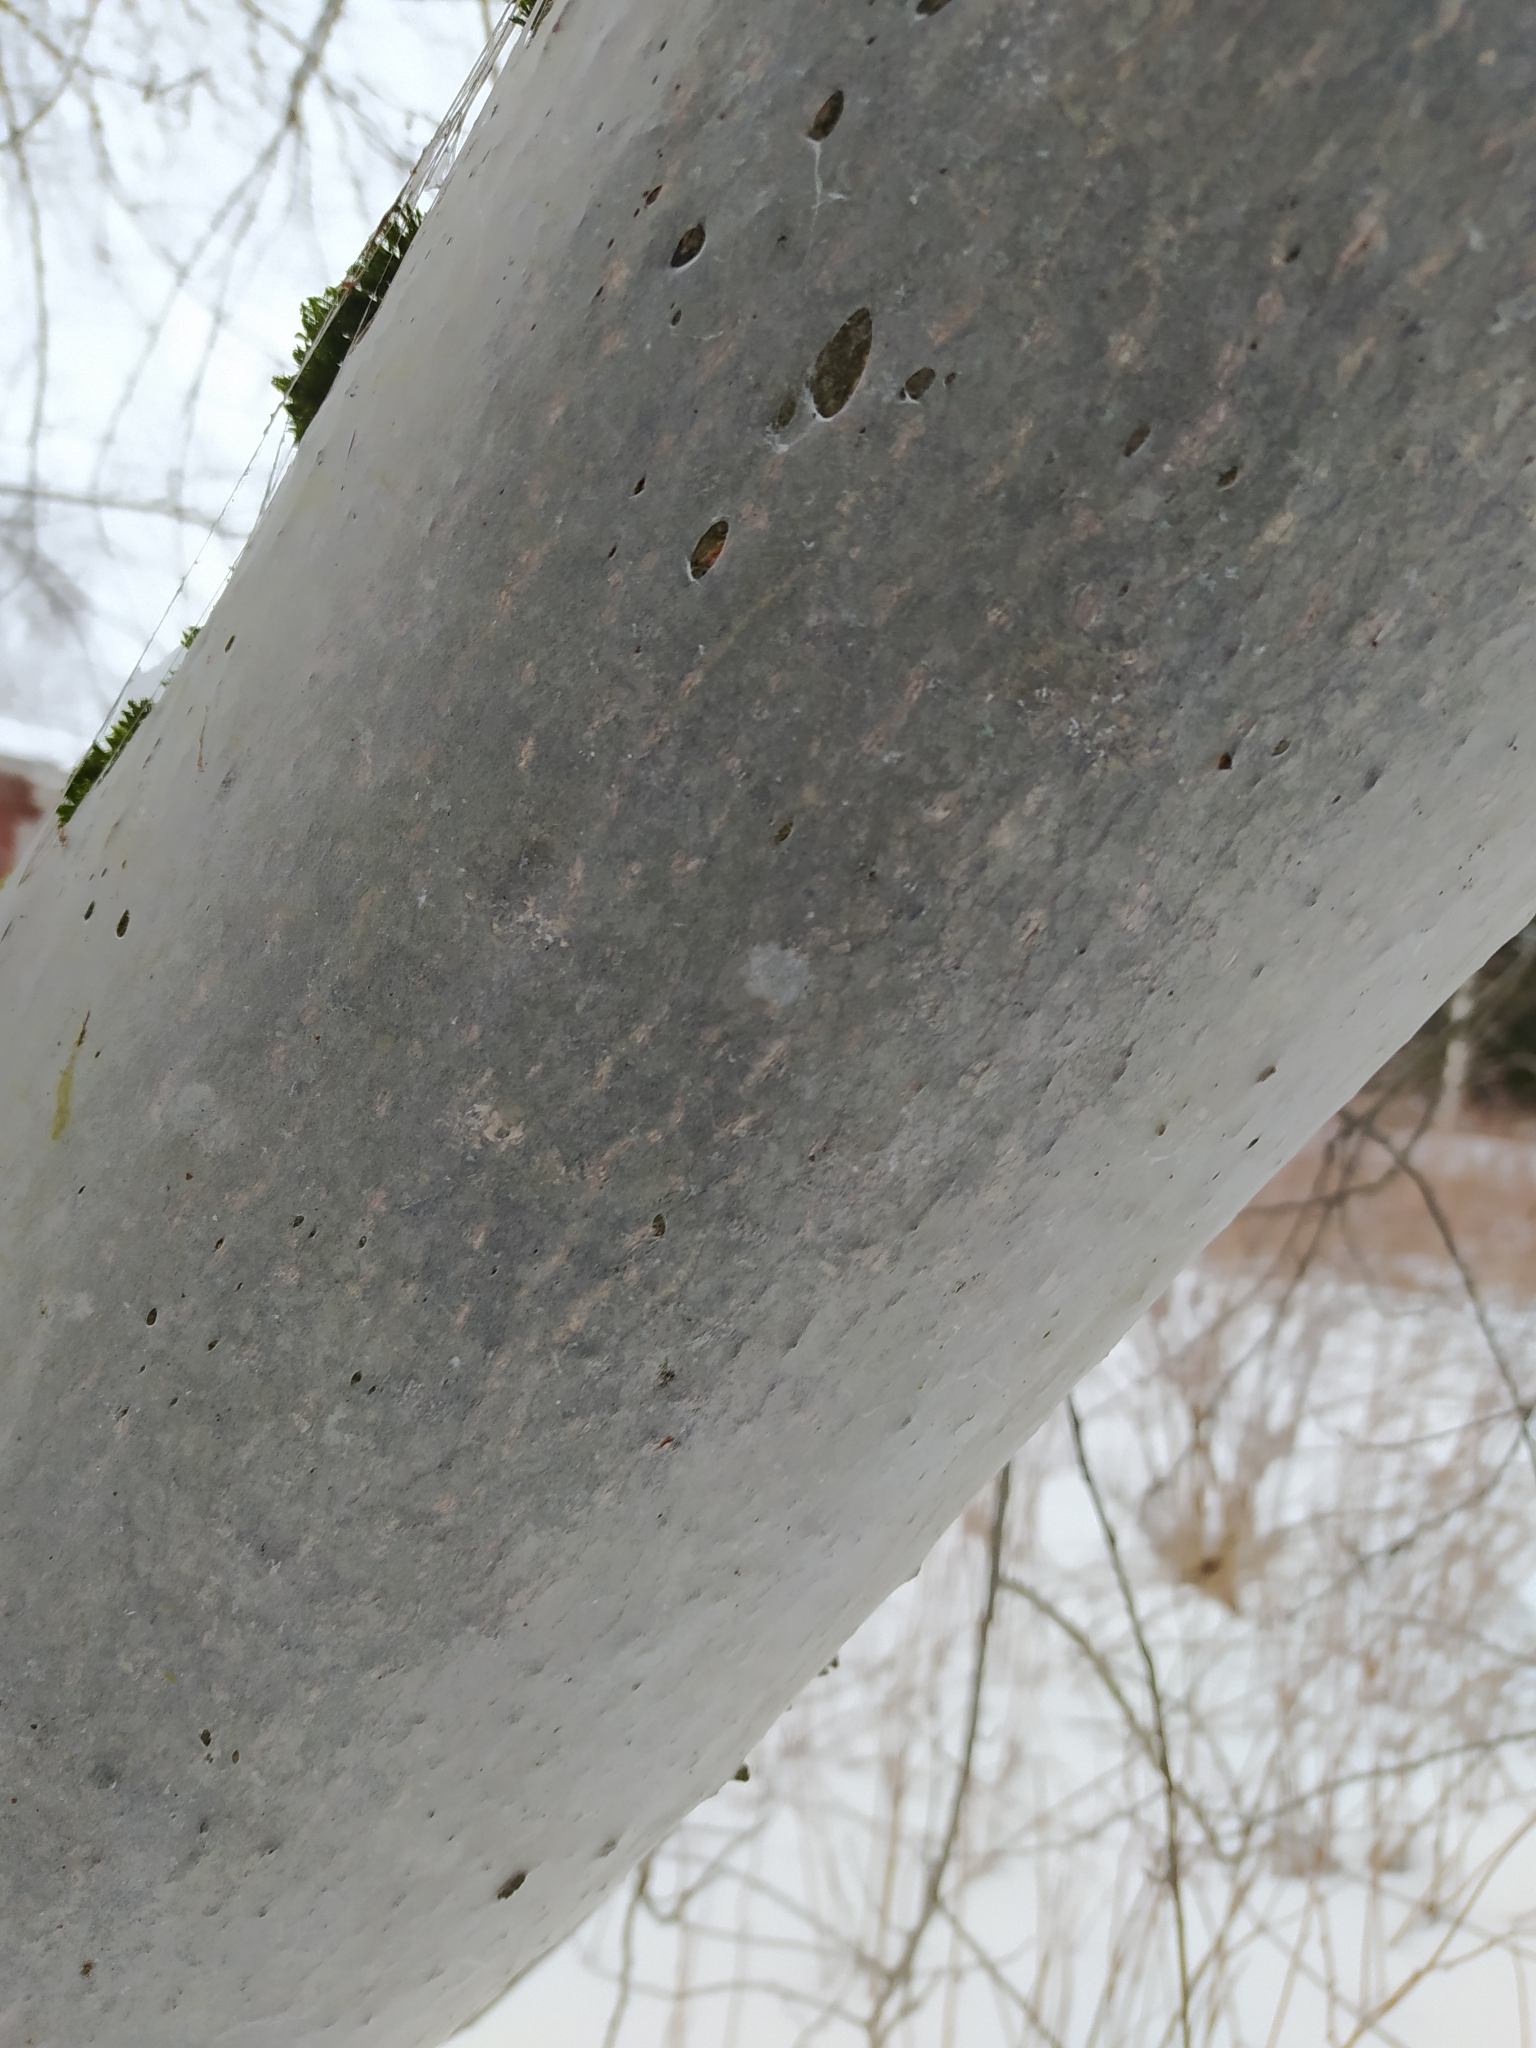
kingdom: Animalia
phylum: Arthropoda
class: Insecta
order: Lepidoptera
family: Yponomeutidae
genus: Yponomeuta
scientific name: Yponomeuta evonymella
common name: Bird-cherry ermine
